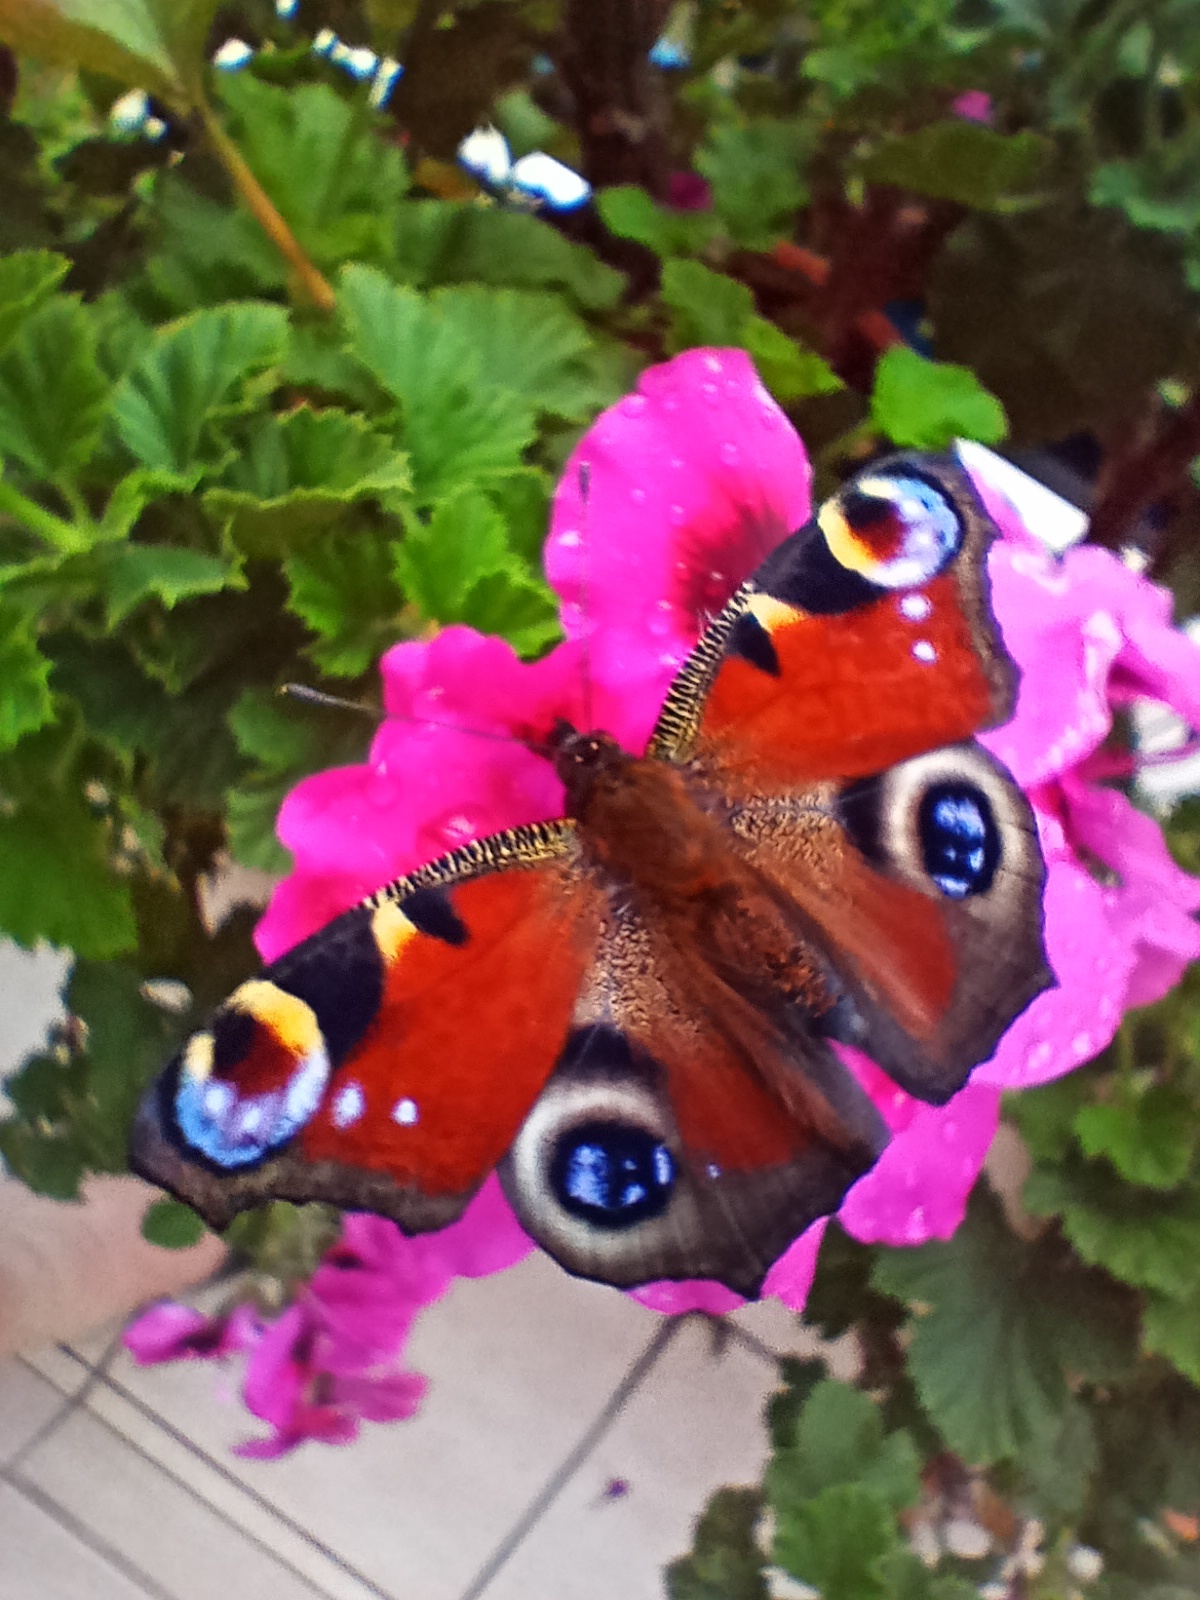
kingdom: Animalia
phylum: Arthropoda
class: Insecta
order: Lepidoptera
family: Nymphalidae
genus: Aglais
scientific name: Aglais io
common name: Peacock
